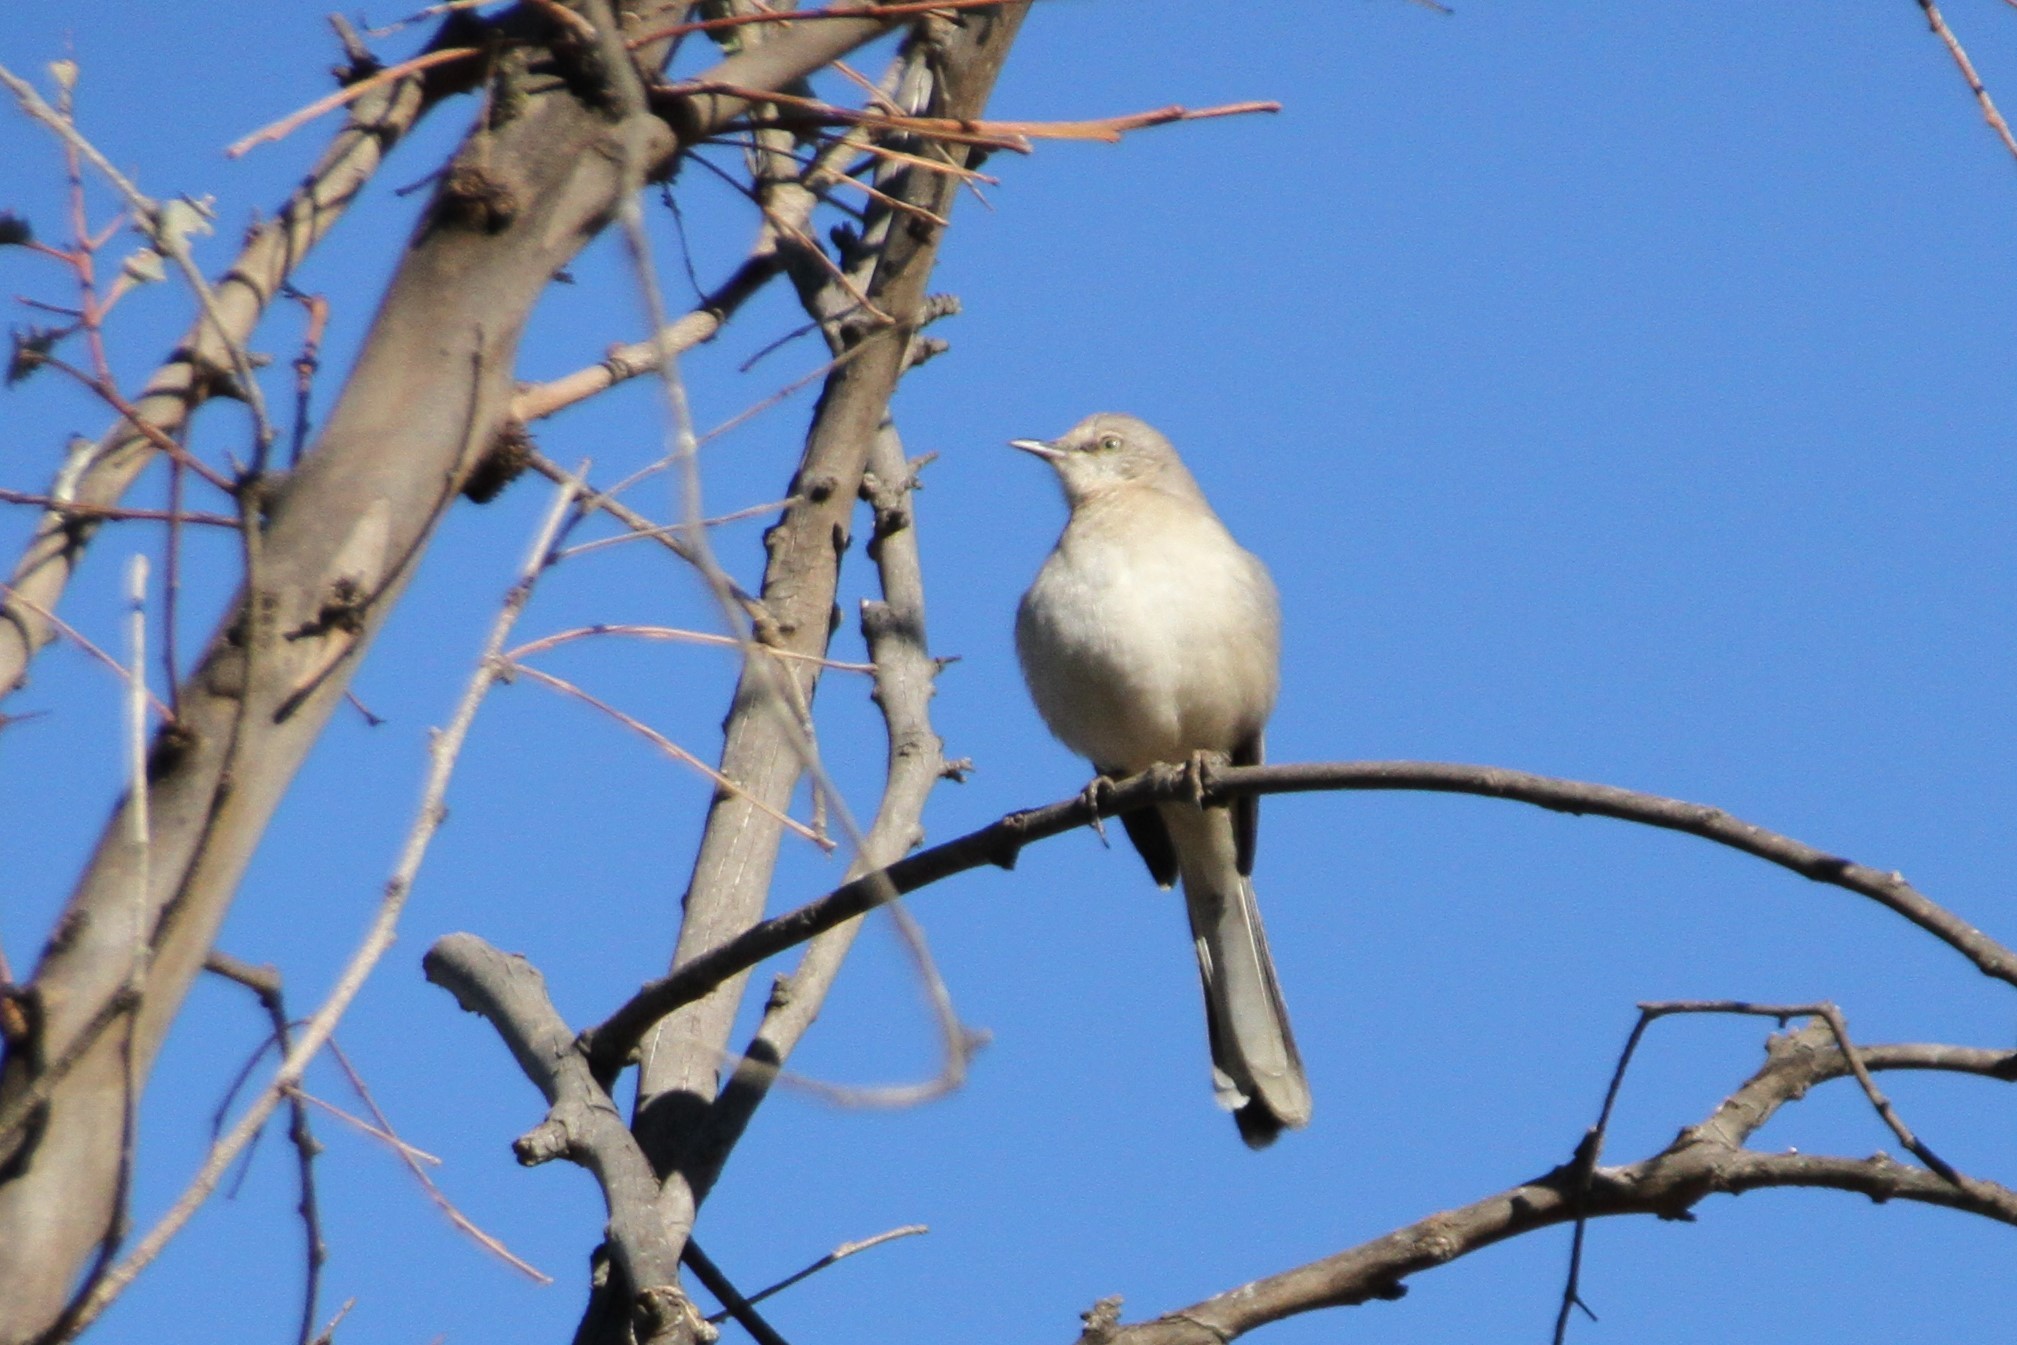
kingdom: Animalia
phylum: Chordata
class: Aves
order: Passeriformes
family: Mimidae
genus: Mimus
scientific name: Mimus polyglottos
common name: Northern mockingbird
